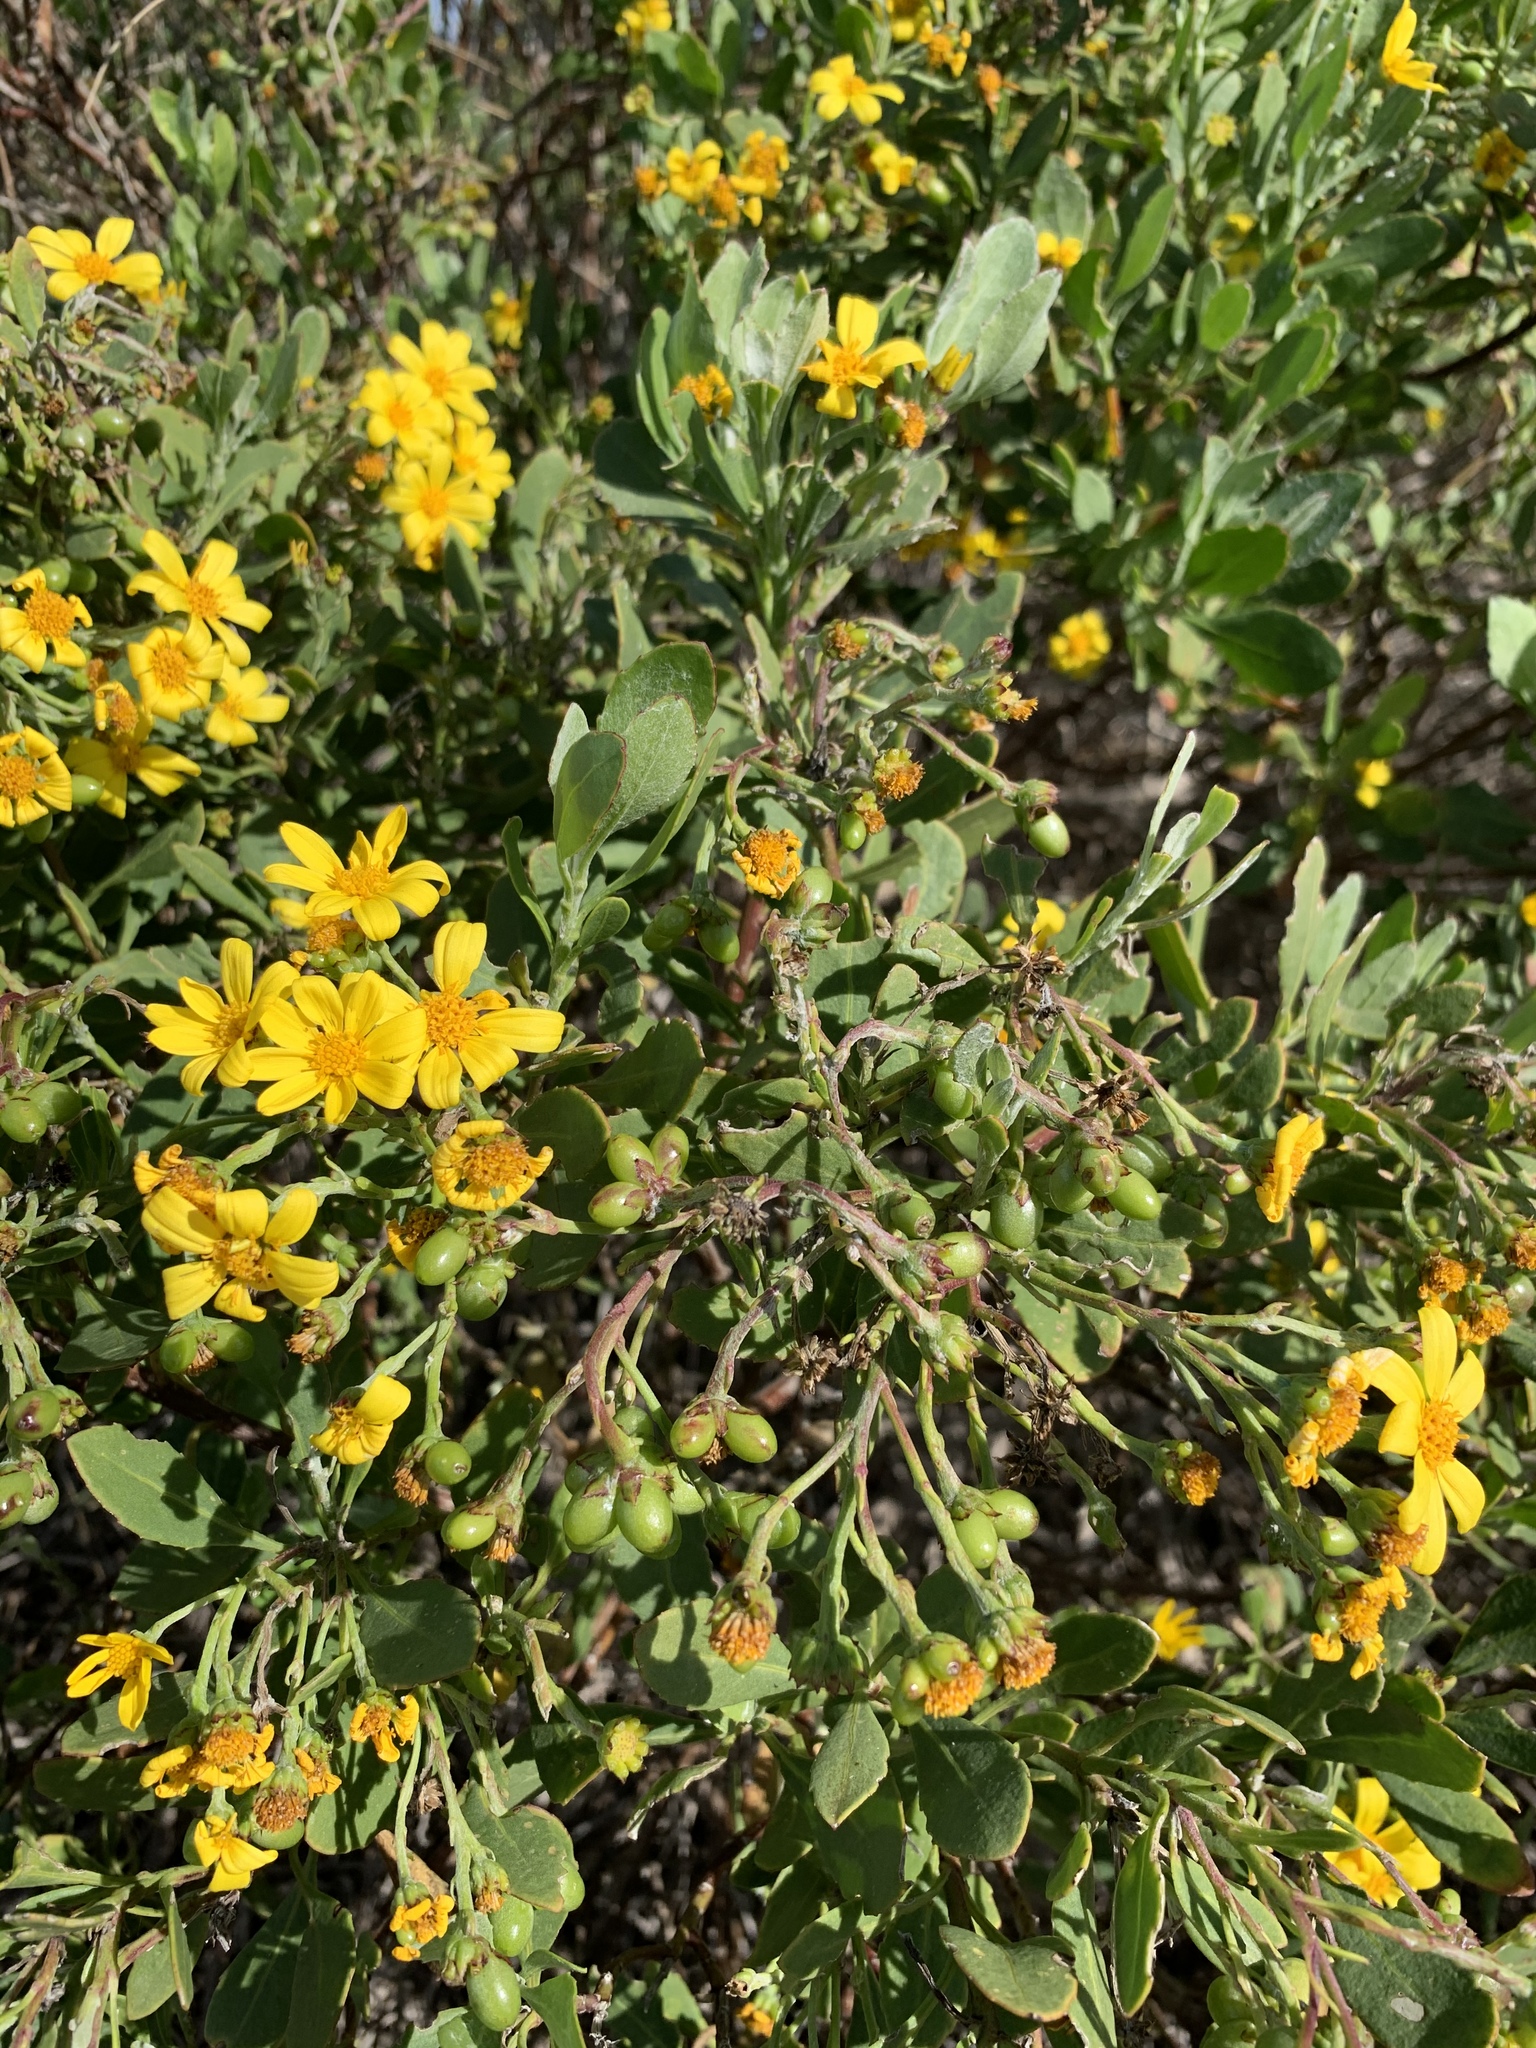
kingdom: Plantae
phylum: Tracheophyta
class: Magnoliopsida
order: Asterales
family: Asteraceae
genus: Osteospermum
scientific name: Osteospermum moniliferum
